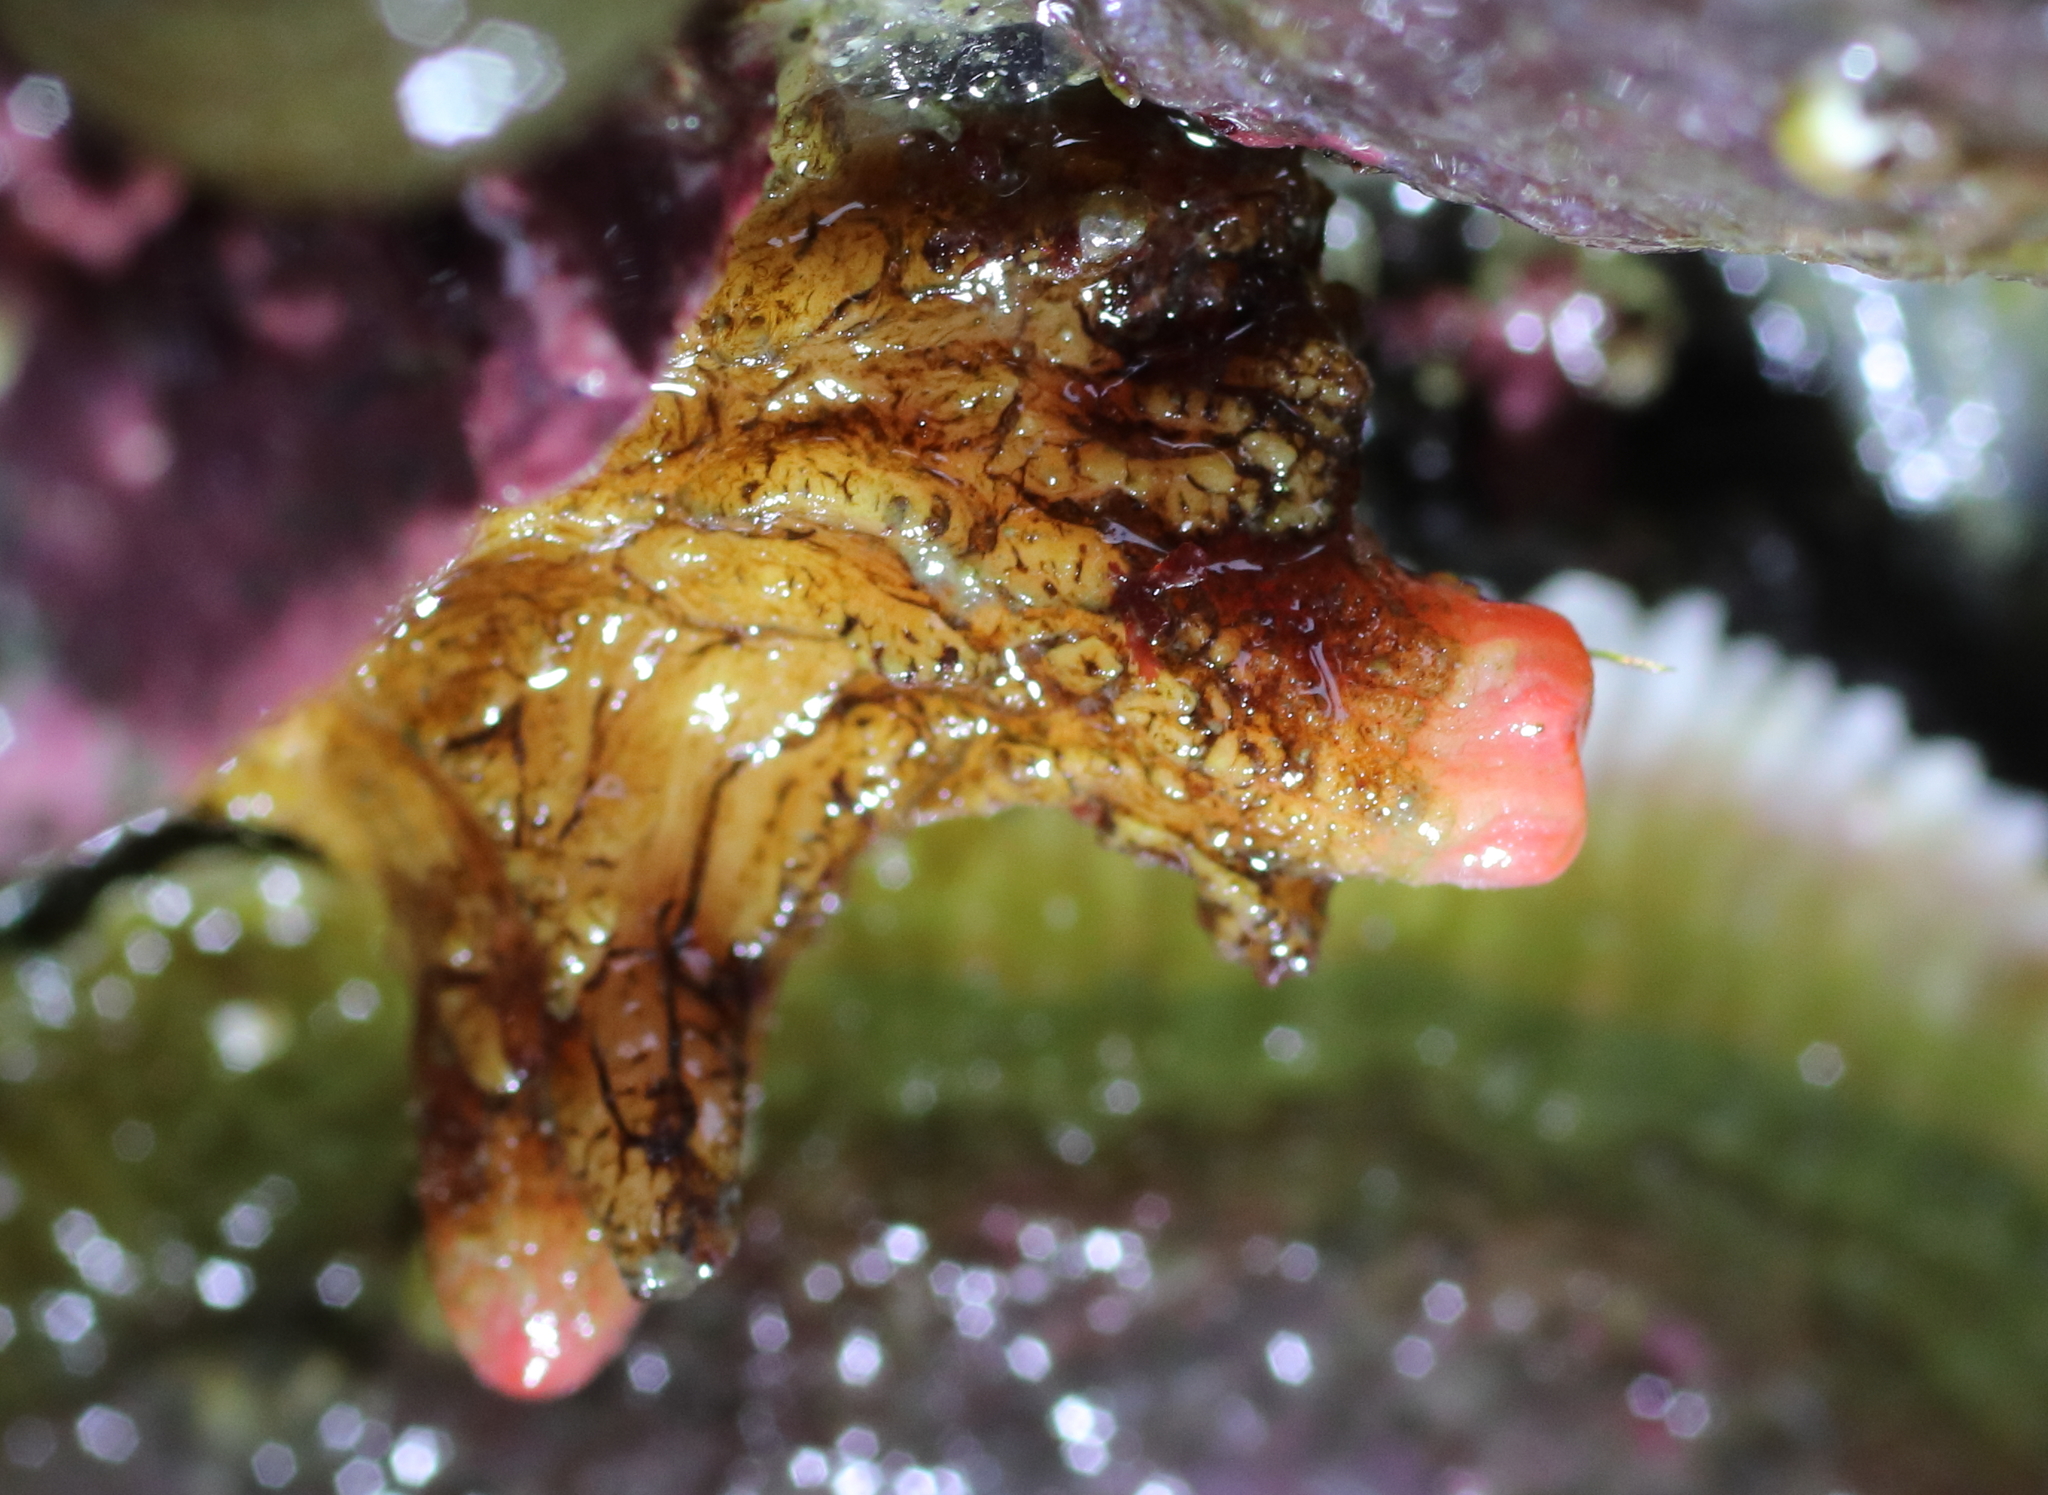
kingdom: Animalia
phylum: Chordata
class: Ascidiacea
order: Stolidobranchia
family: Pyuridae
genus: Pyura
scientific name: Pyura haustor
